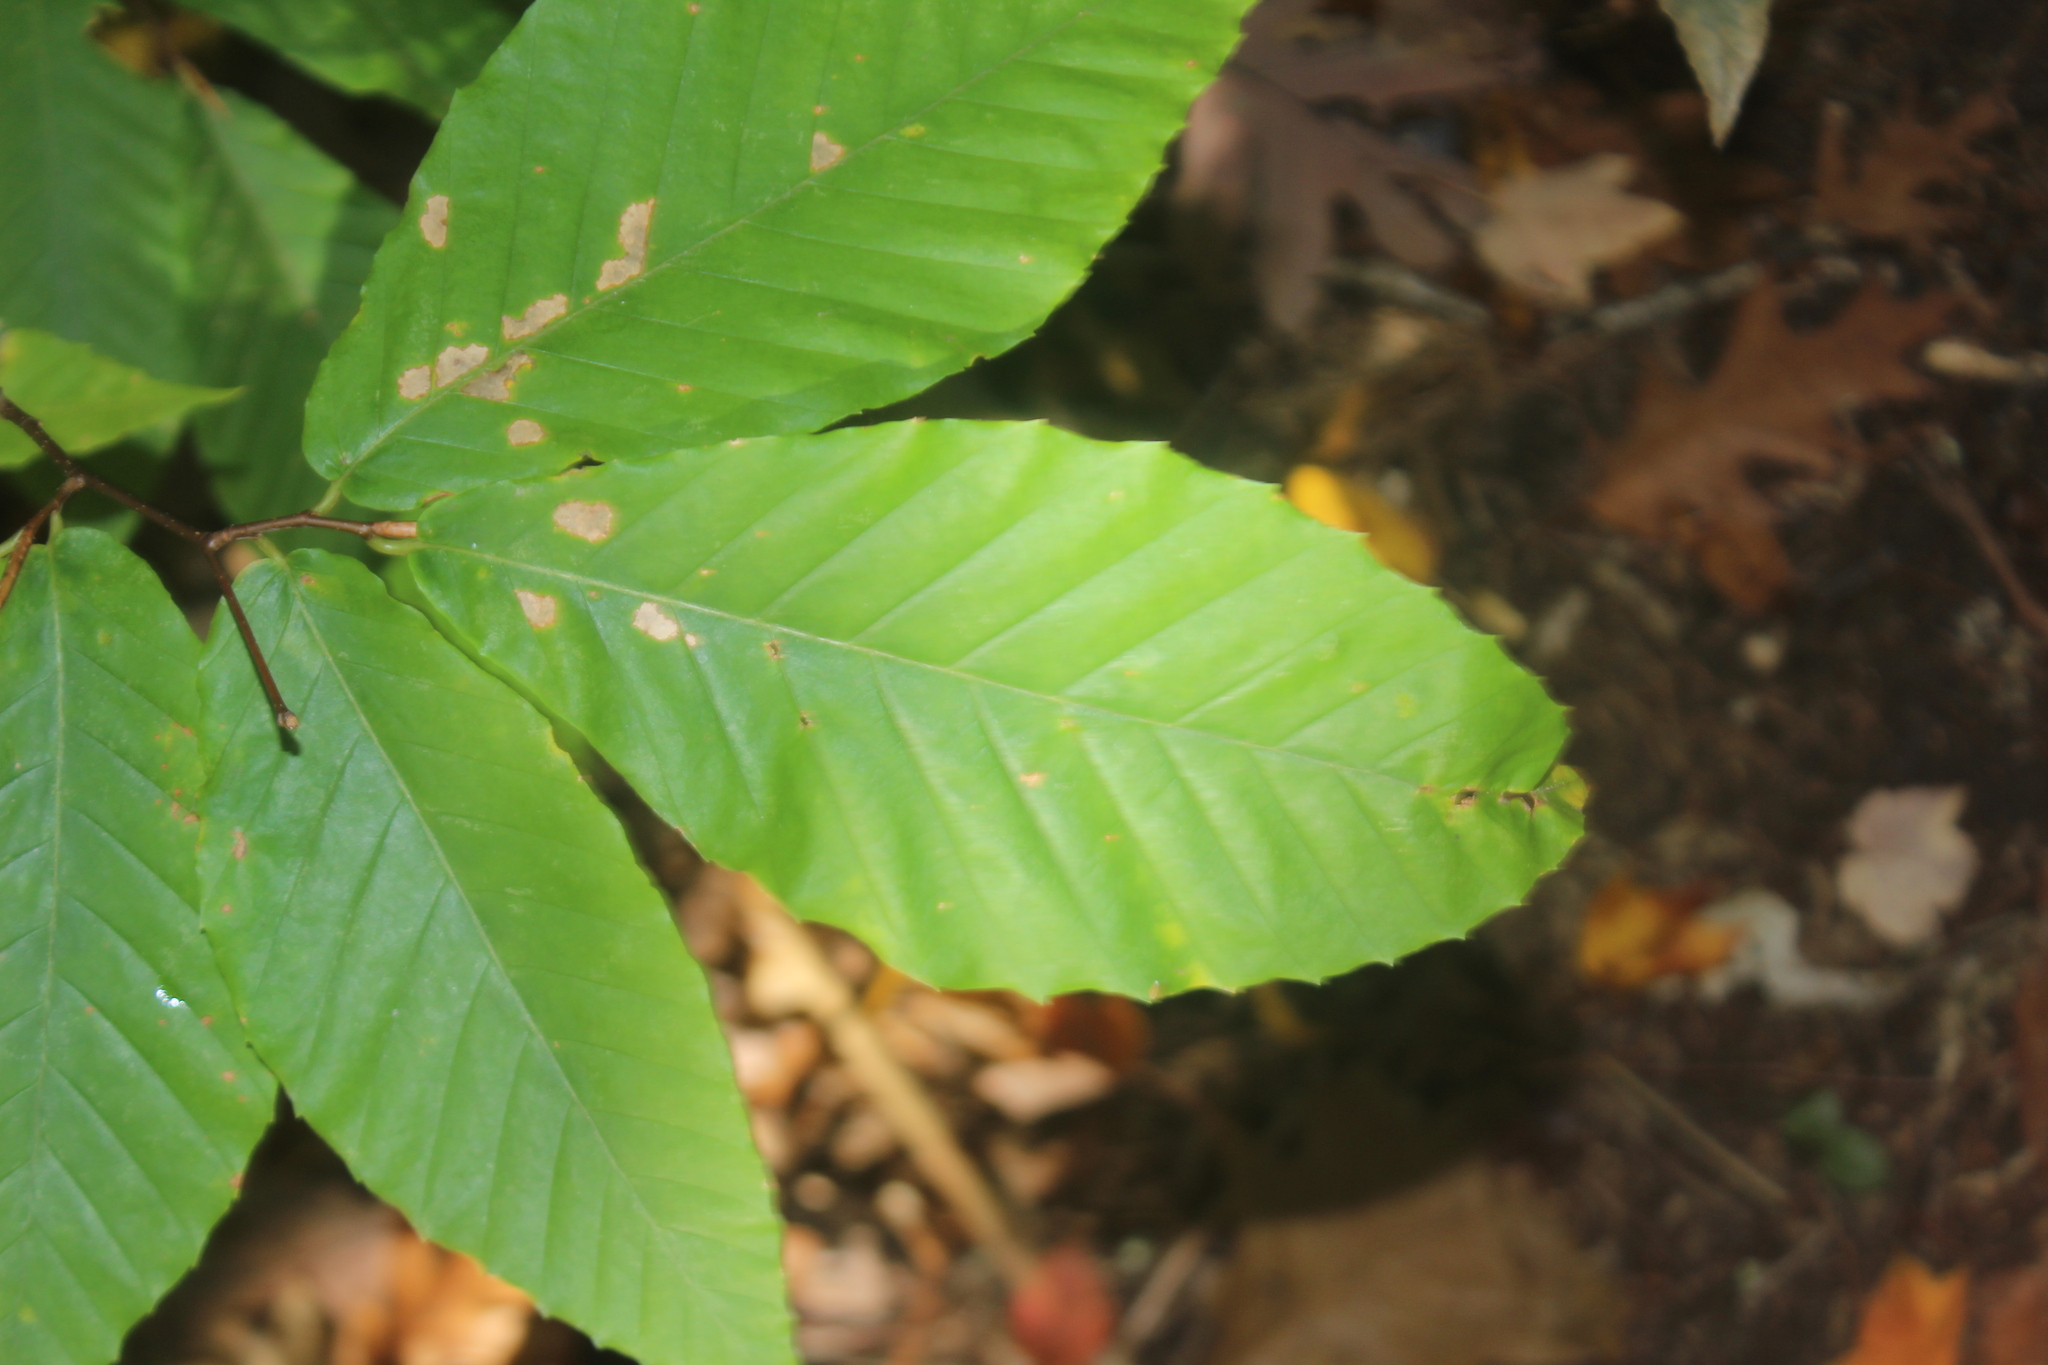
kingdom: Plantae
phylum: Tracheophyta
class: Magnoliopsida
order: Fagales
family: Fagaceae
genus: Fagus
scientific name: Fagus grandifolia
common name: American beech
